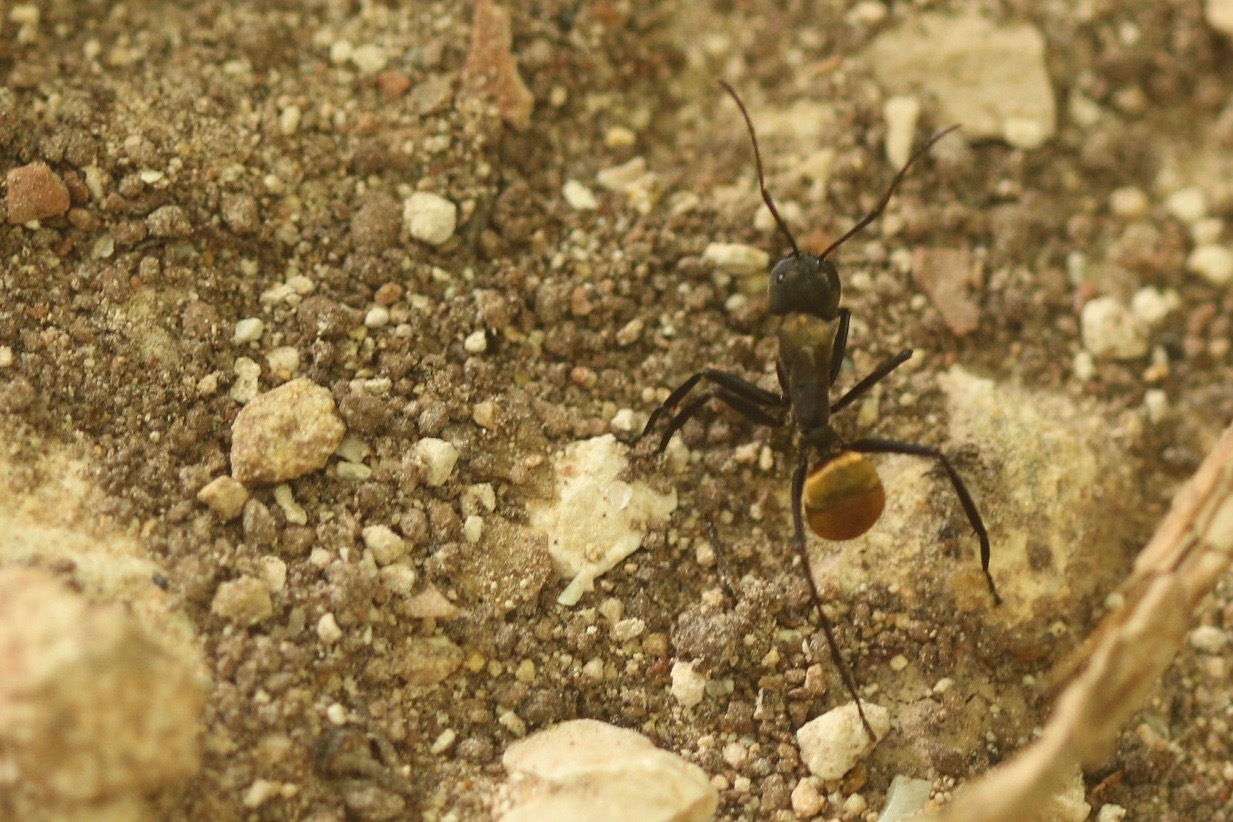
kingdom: Animalia
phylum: Arthropoda
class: Insecta
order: Hymenoptera
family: Formicidae
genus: Camponotus
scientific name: Camponotus sericeiventris
